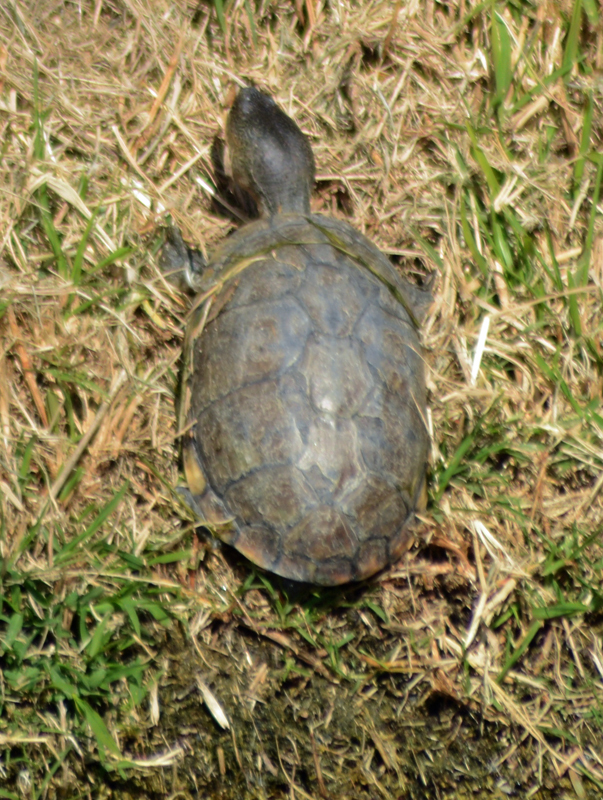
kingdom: Animalia
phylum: Chordata
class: Testudines
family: Kinosternidae
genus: Kinosternon
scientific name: Kinosternon integrum
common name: Mexican mud turtle
